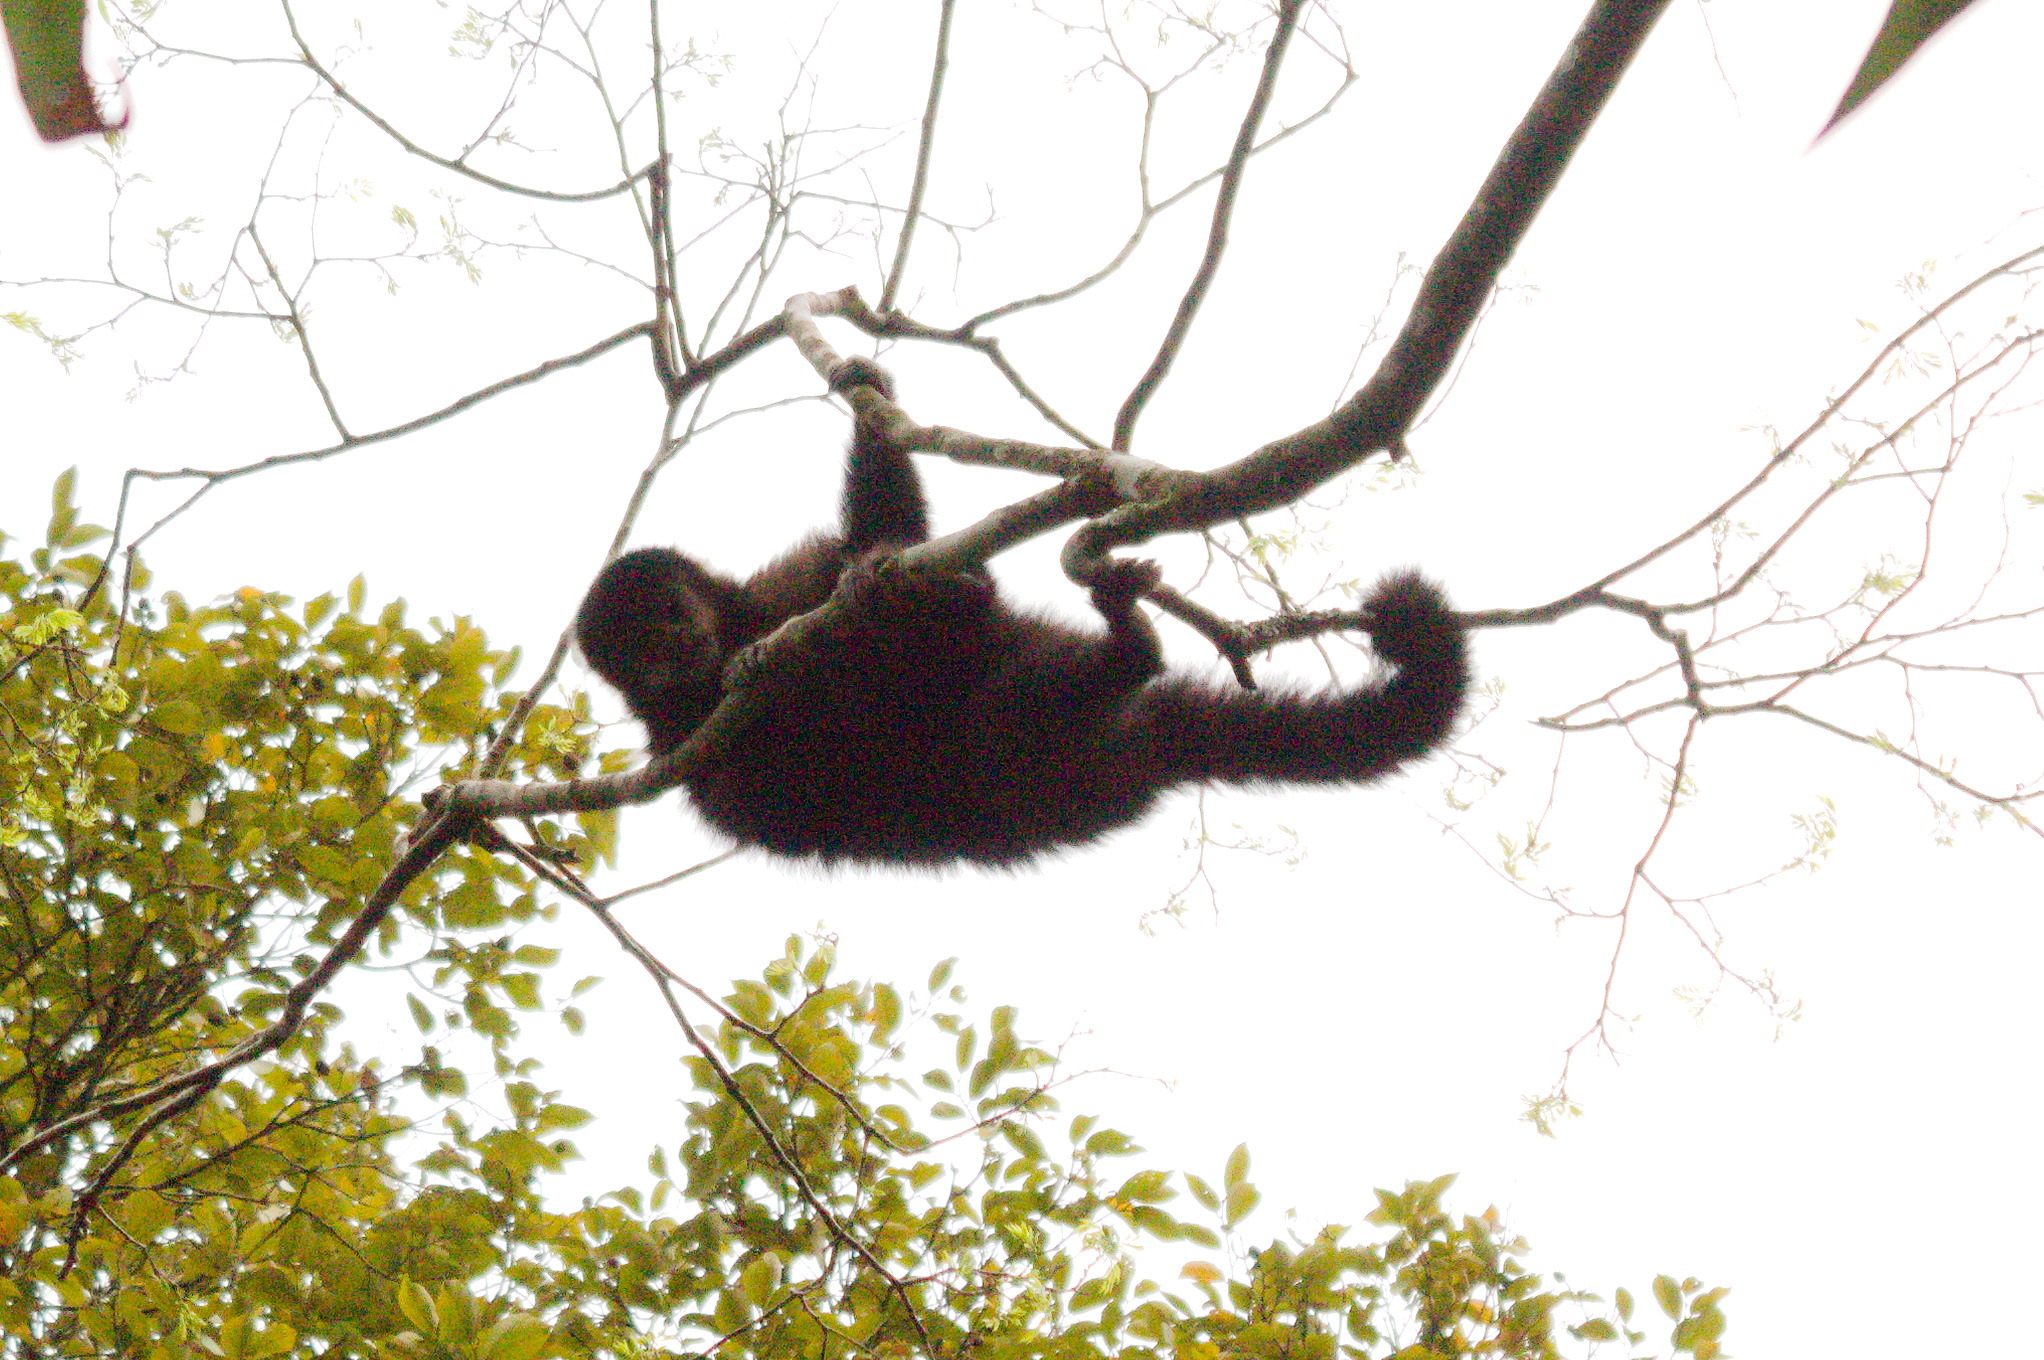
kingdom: Animalia
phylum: Chordata
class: Mammalia
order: Primates
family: Cebidae
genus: Sapajus
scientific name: Sapajus nigritus
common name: Black capuchin
